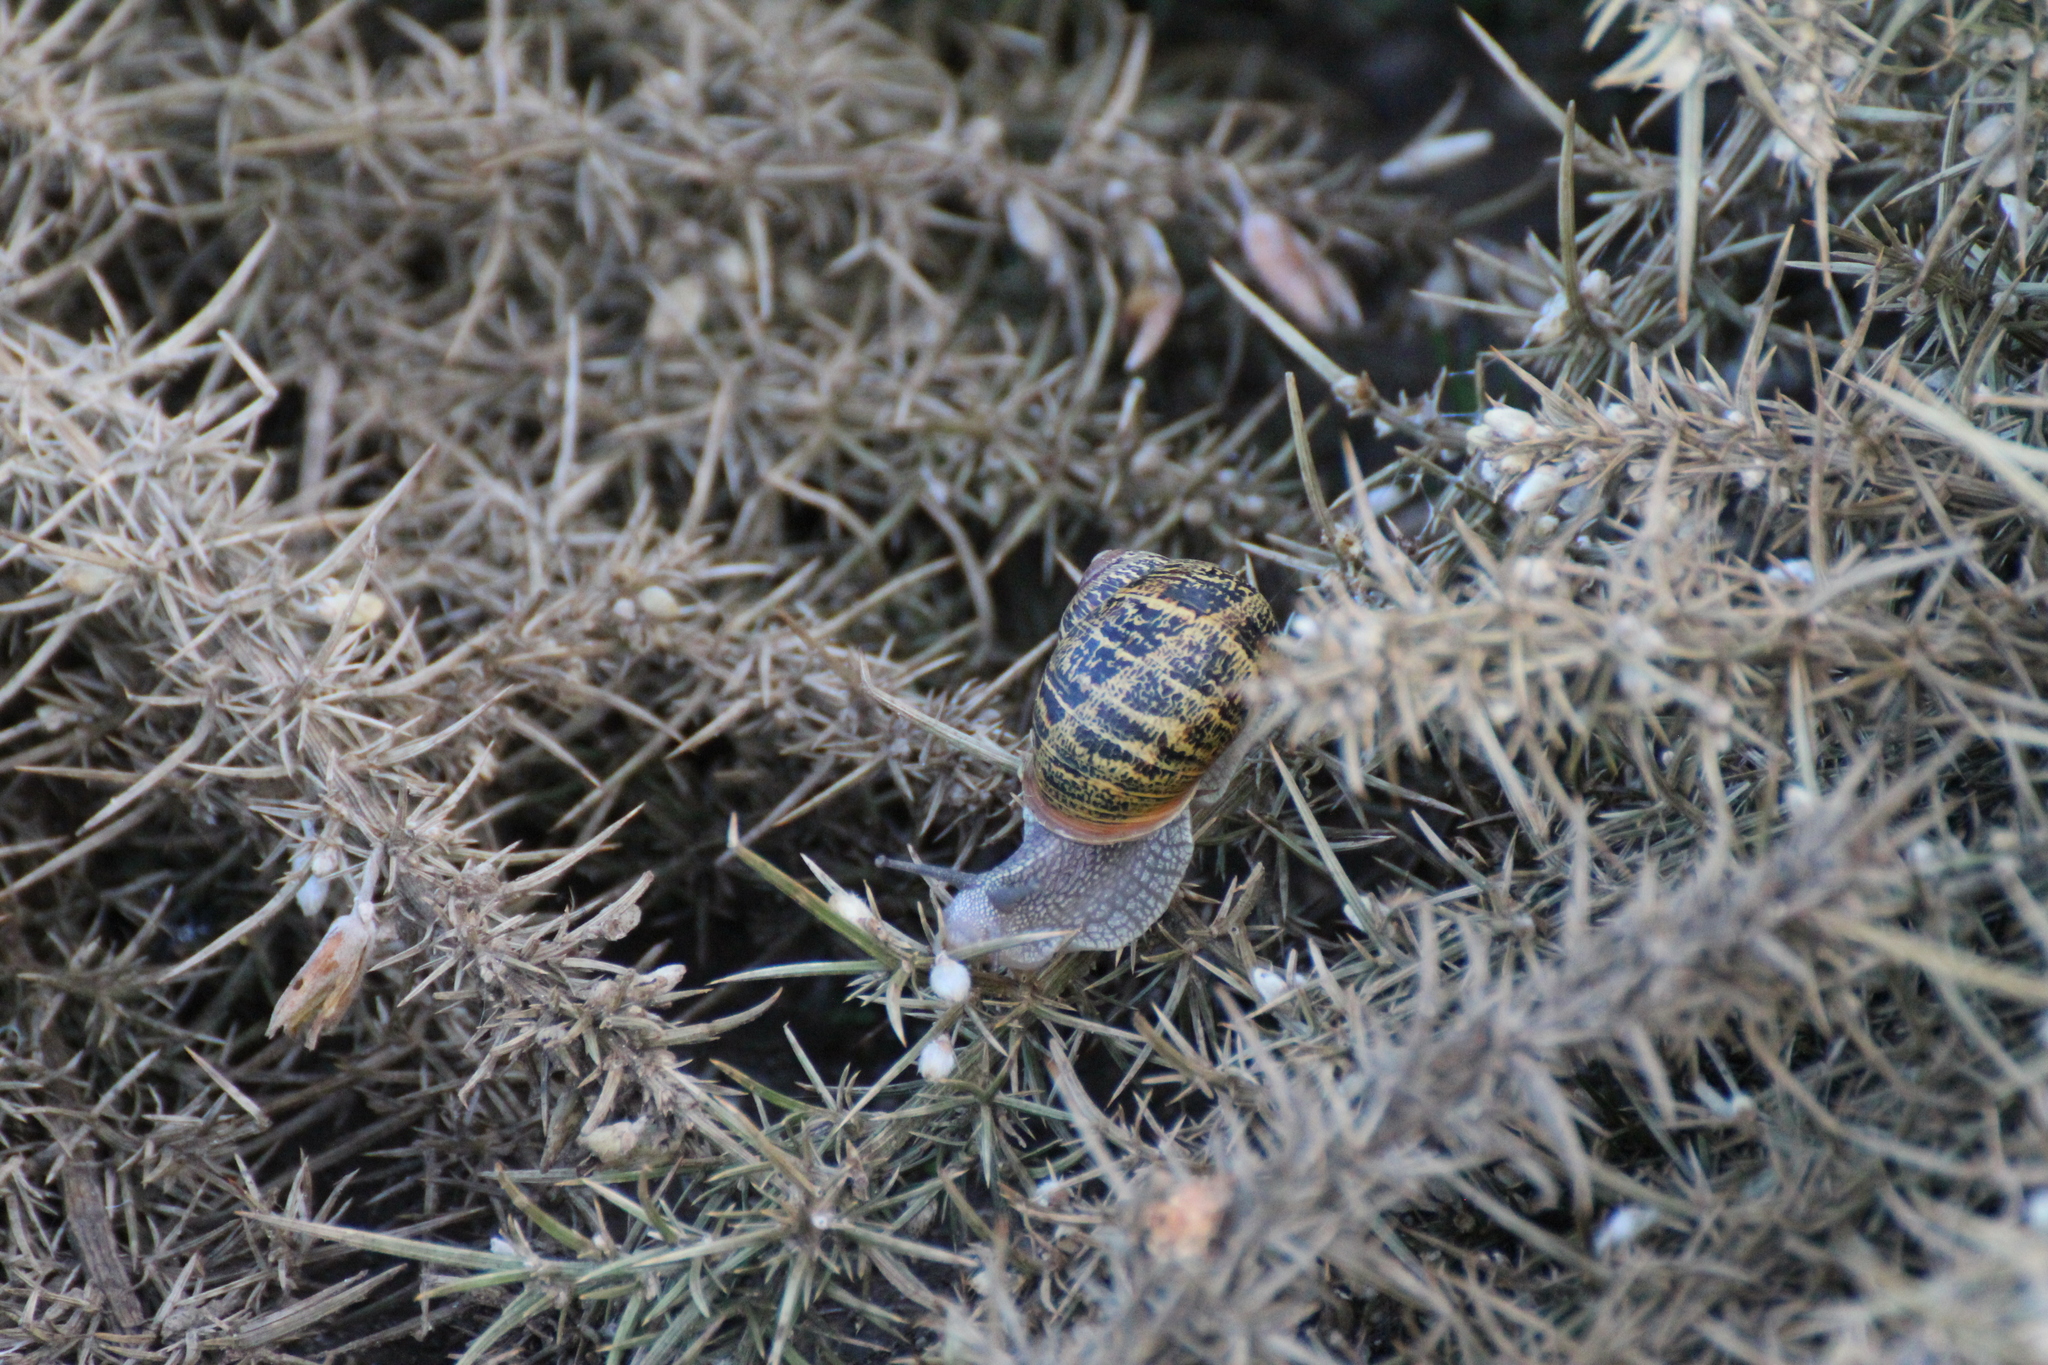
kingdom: Animalia
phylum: Mollusca
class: Gastropoda
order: Stylommatophora
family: Helicidae
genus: Cornu
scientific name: Cornu aspersum
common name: Brown garden snail
